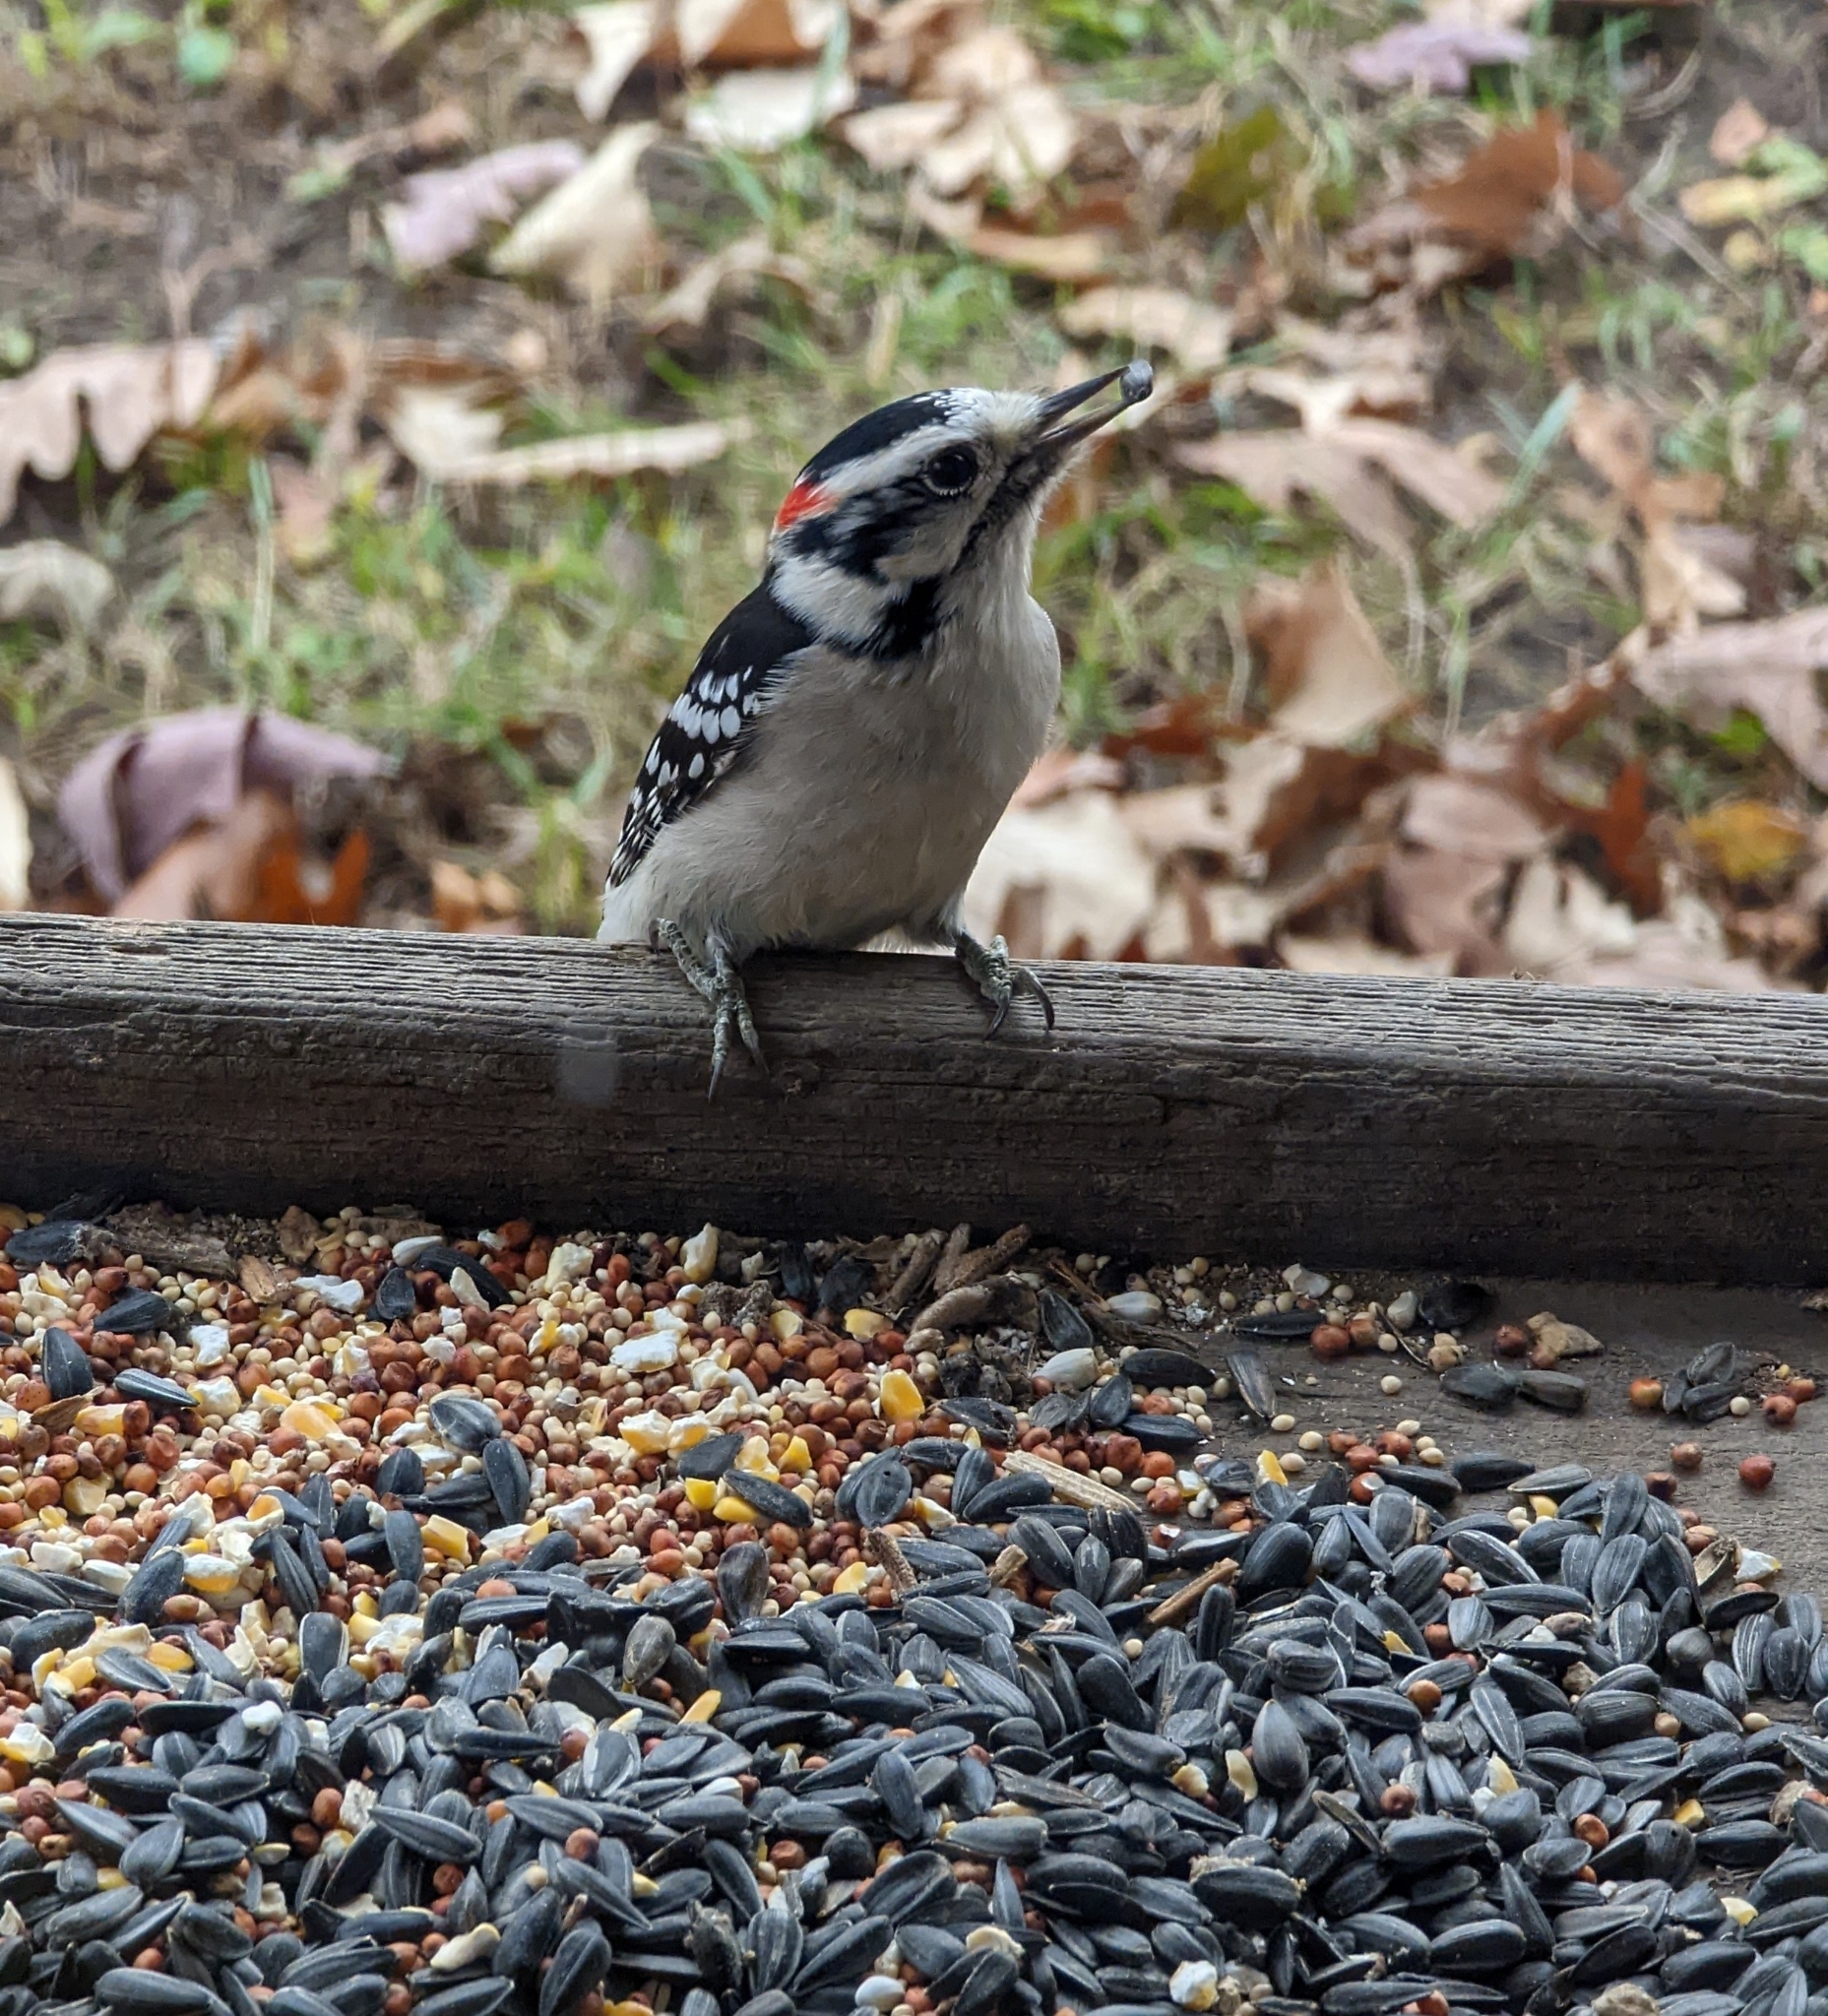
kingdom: Animalia
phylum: Chordata
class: Aves
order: Piciformes
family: Picidae
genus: Dryobates
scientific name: Dryobates pubescens
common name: Downy woodpecker
